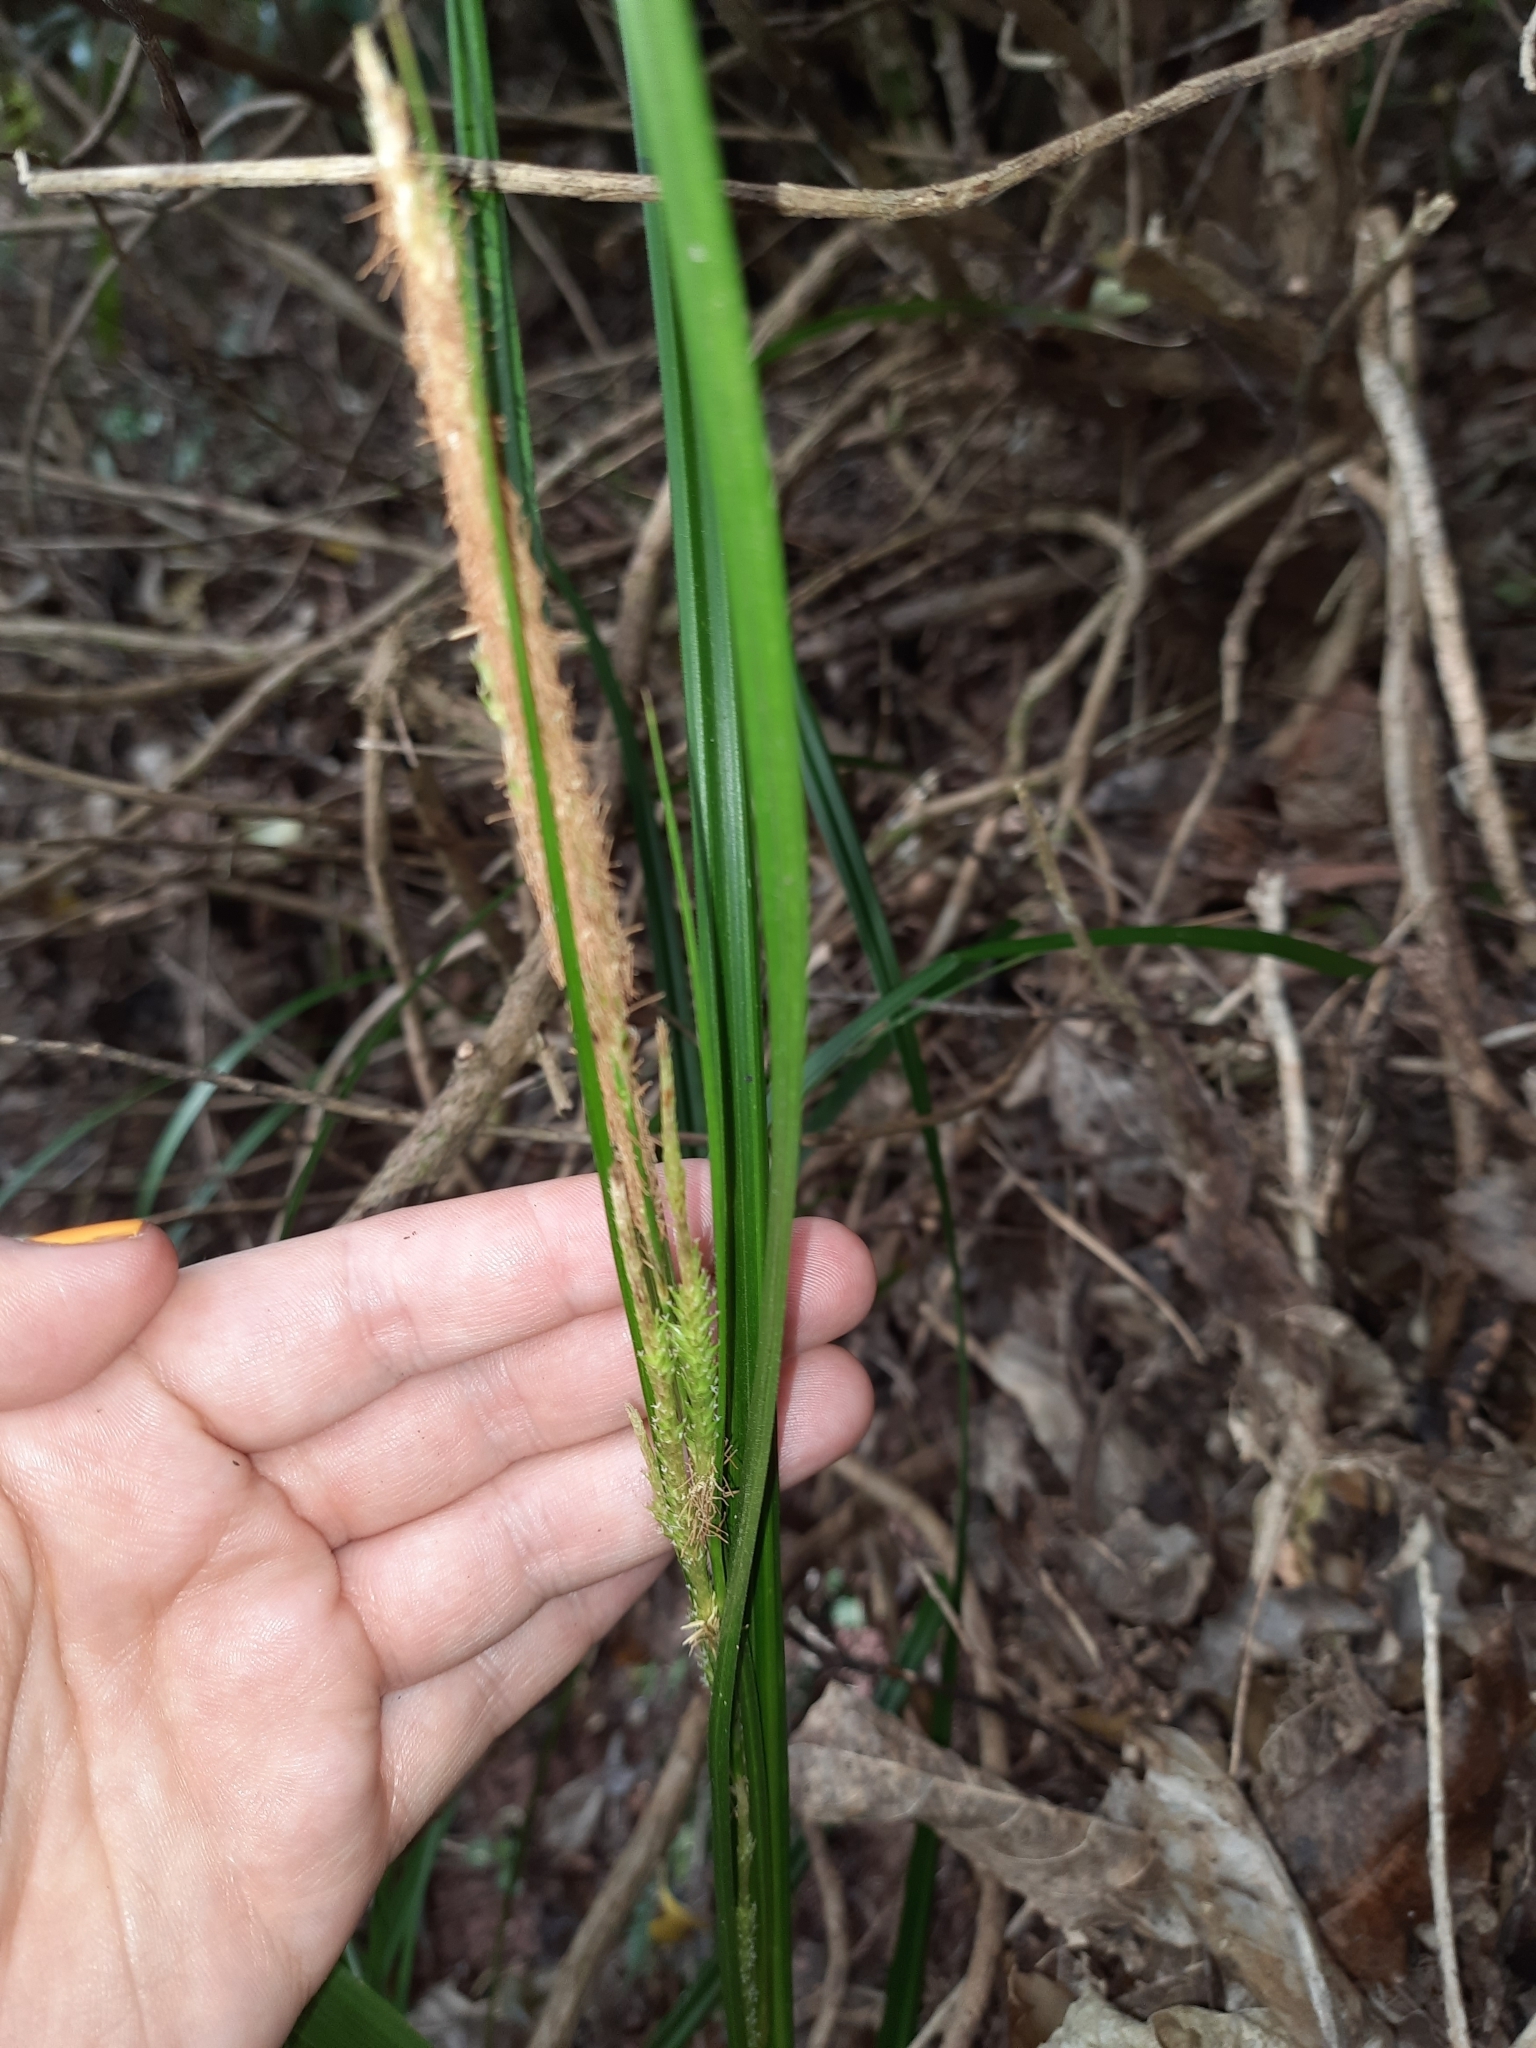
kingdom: Plantae
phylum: Tracheophyta
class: Liliopsida
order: Poales
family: Cyperaceae
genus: Carex
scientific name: Carex forsteri
